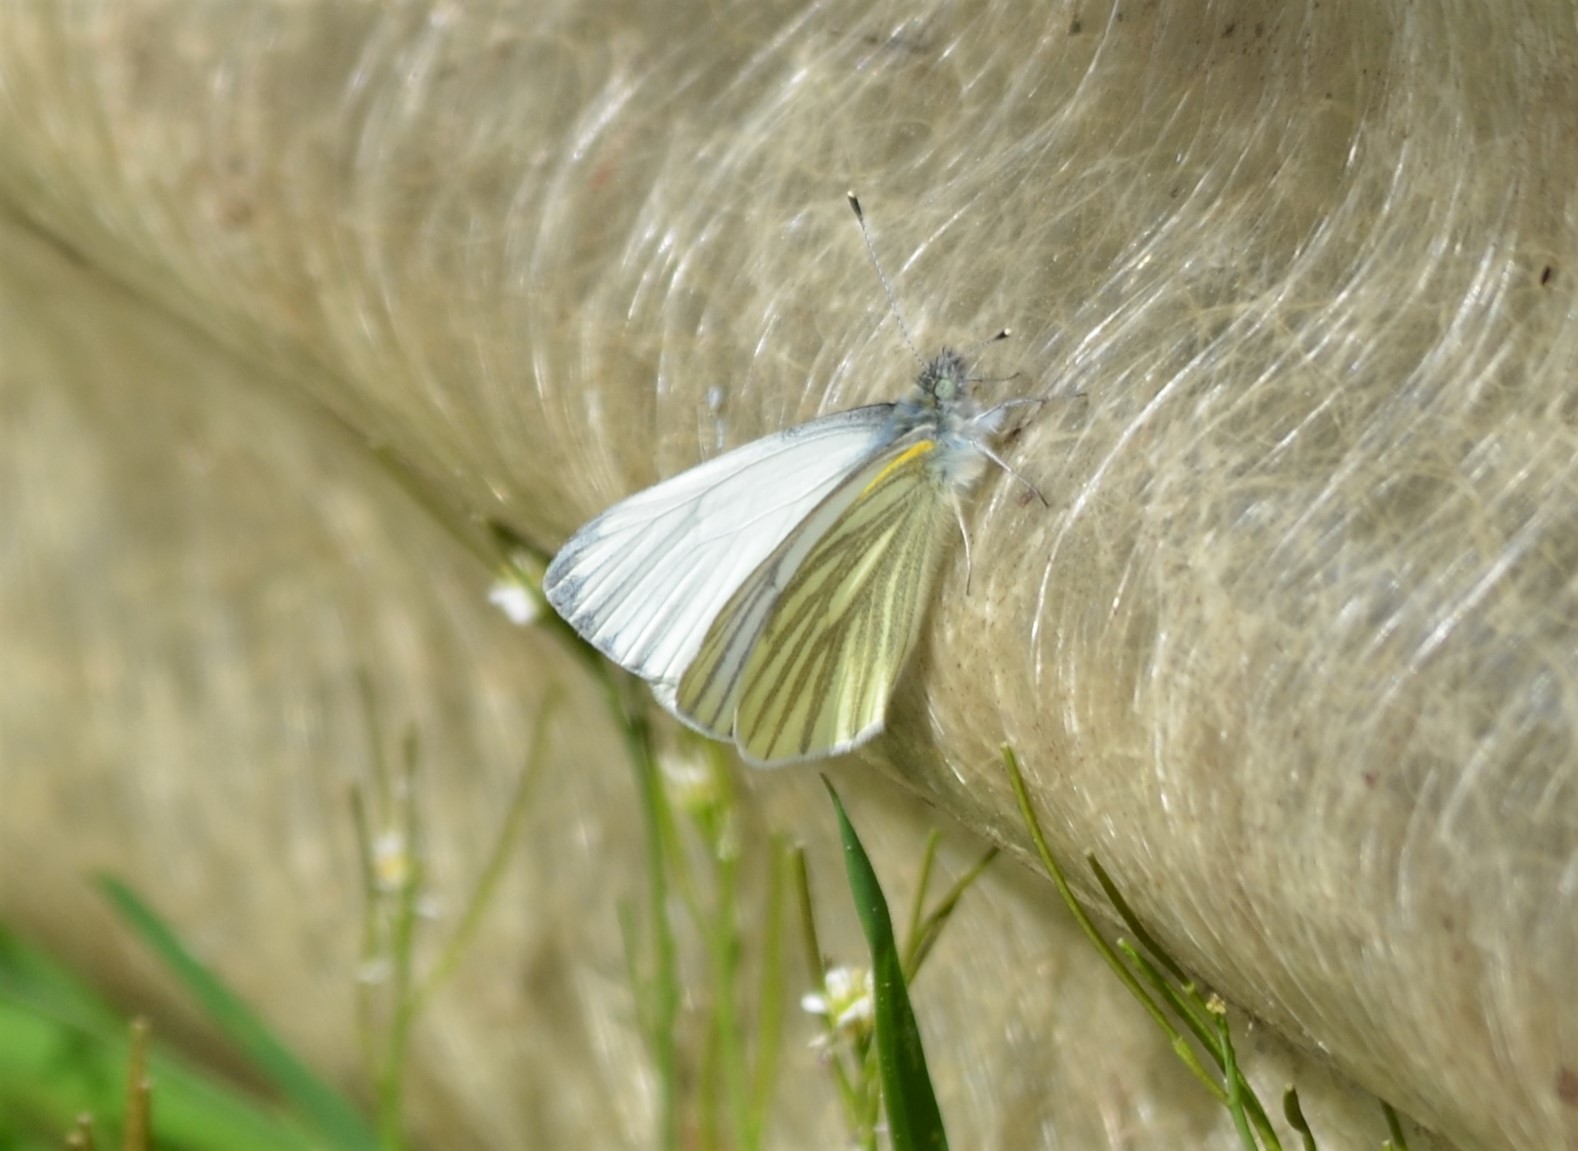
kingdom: Animalia
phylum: Arthropoda
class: Insecta
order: Lepidoptera
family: Pieridae
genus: Pieris
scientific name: Pieris napi
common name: Green-veined white
